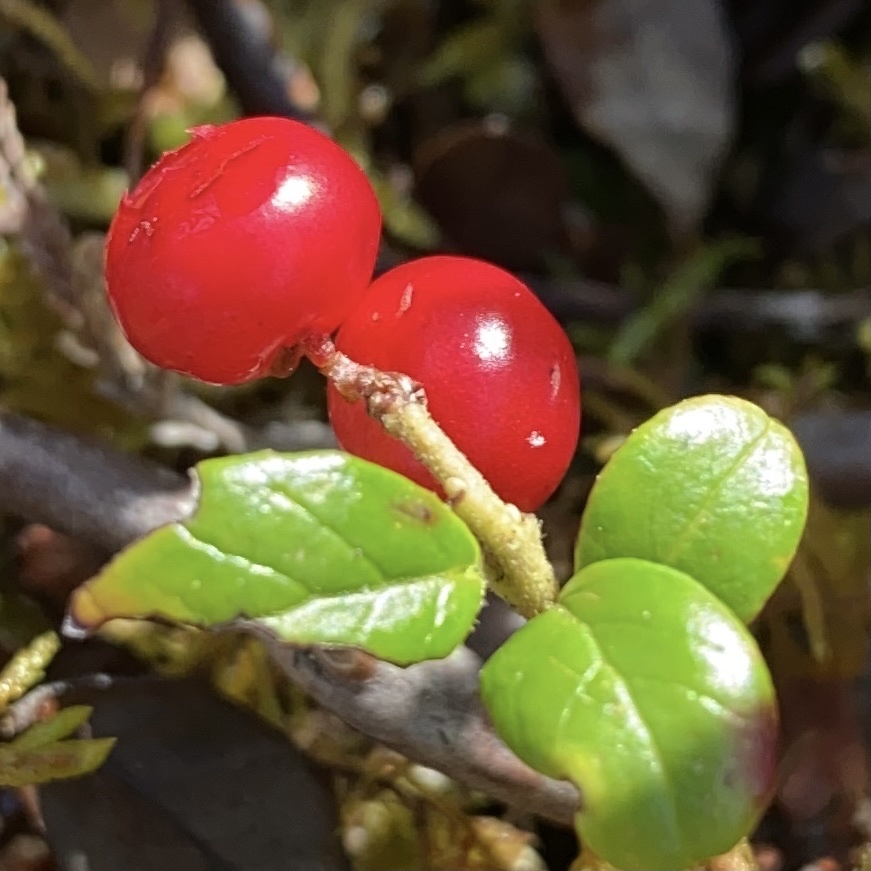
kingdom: Plantae
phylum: Tracheophyta
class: Magnoliopsida
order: Ericales
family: Ericaceae
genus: Vaccinium
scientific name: Vaccinium vitis-idaea
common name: Cowberry
